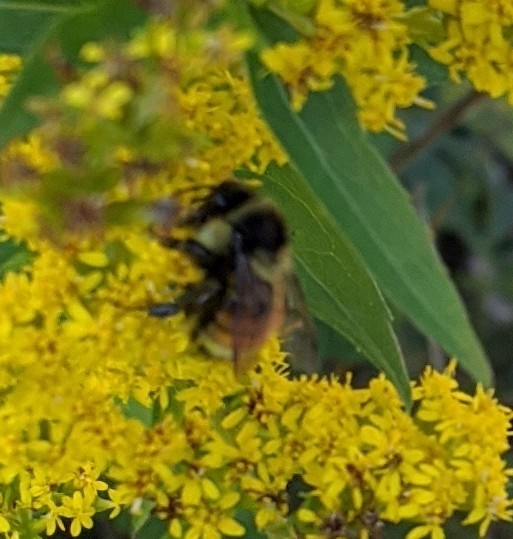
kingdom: Animalia
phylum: Arthropoda
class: Insecta
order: Hymenoptera
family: Apidae
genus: Bombus
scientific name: Bombus ternarius
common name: Tri-colored bumble bee
